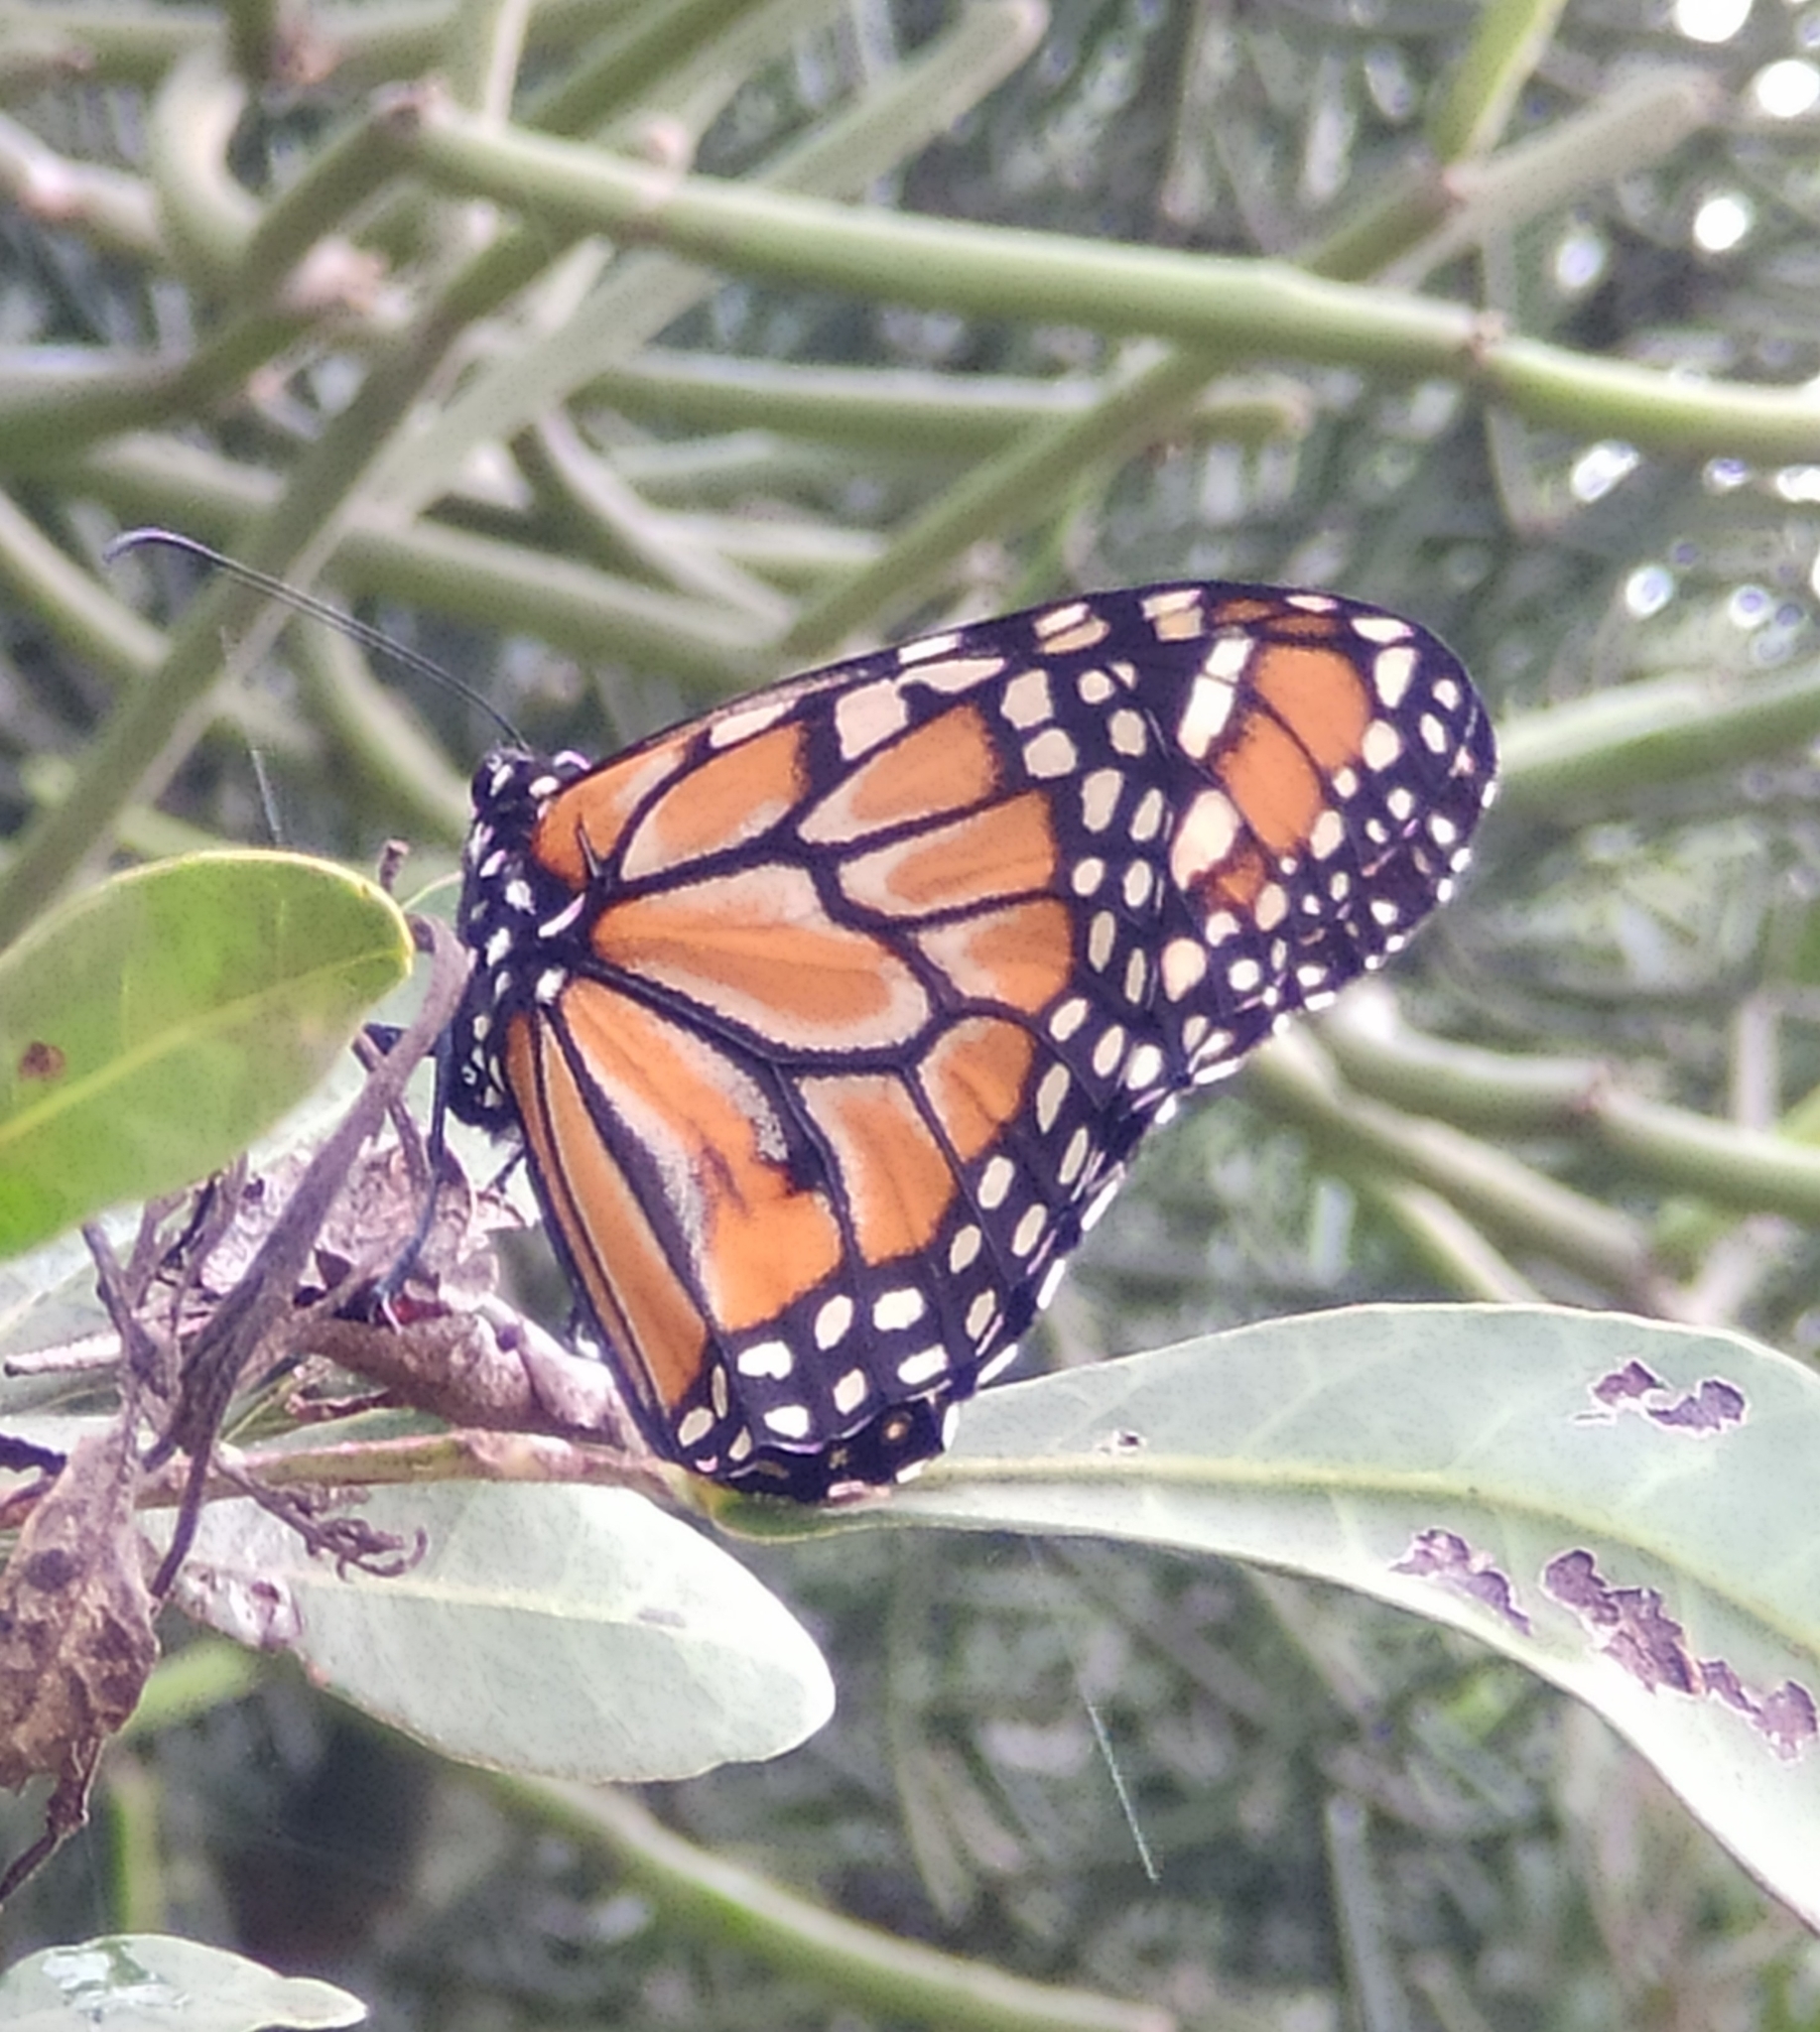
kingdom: Animalia
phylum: Arthropoda
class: Insecta
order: Lepidoptera
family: Nymphalidae
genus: Danaus
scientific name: Danaus erippus
